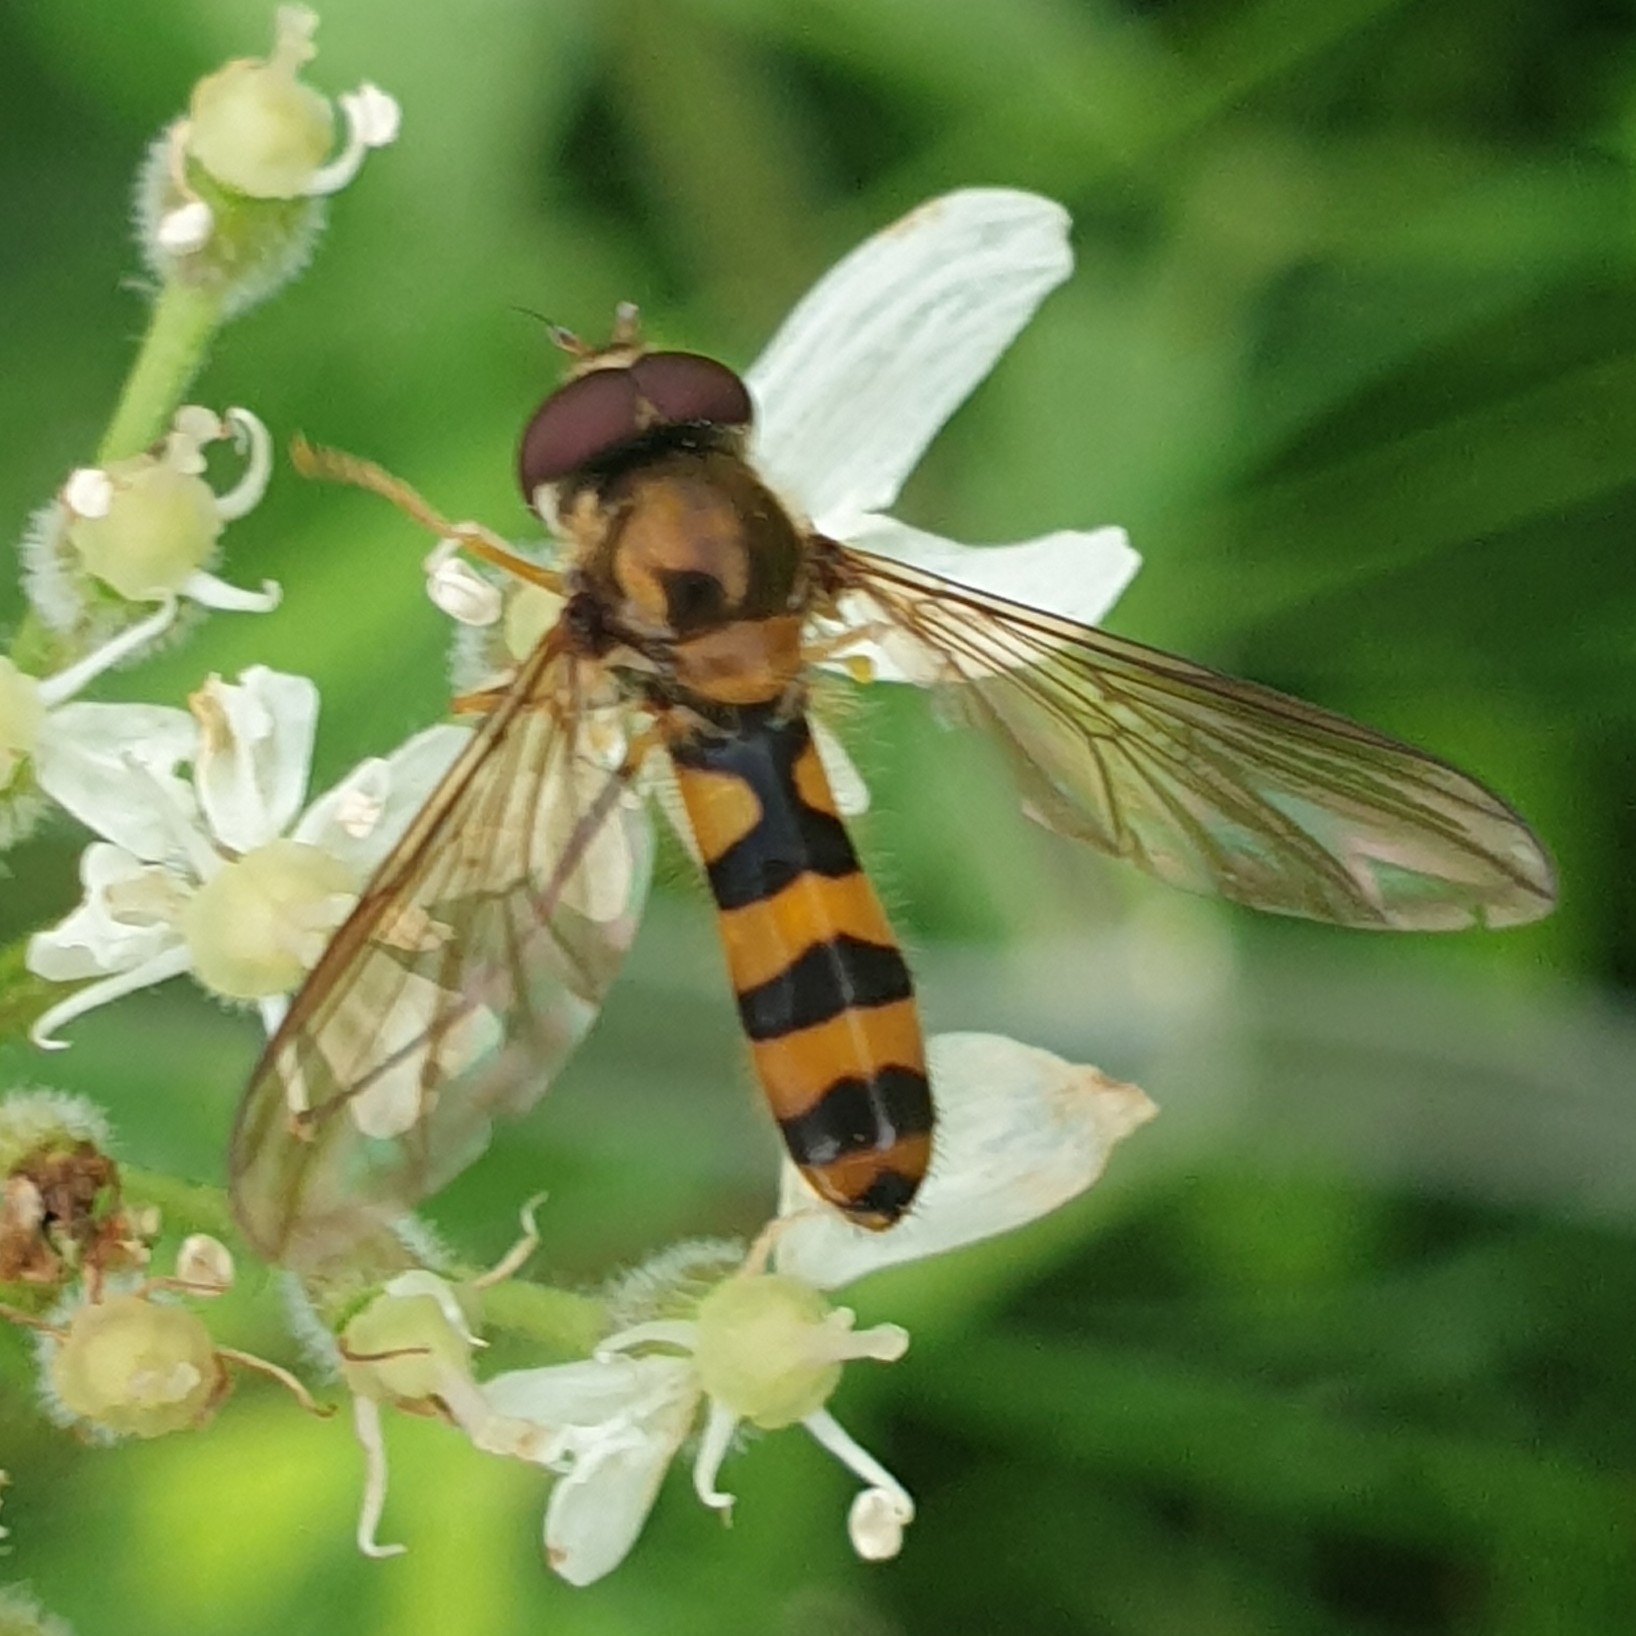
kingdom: Animalia
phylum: Arthropoda
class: Insecta
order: Diptera
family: Syrphidae
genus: Meliscaeva
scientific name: Meliscaeva cinctella
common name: American thintail fly
